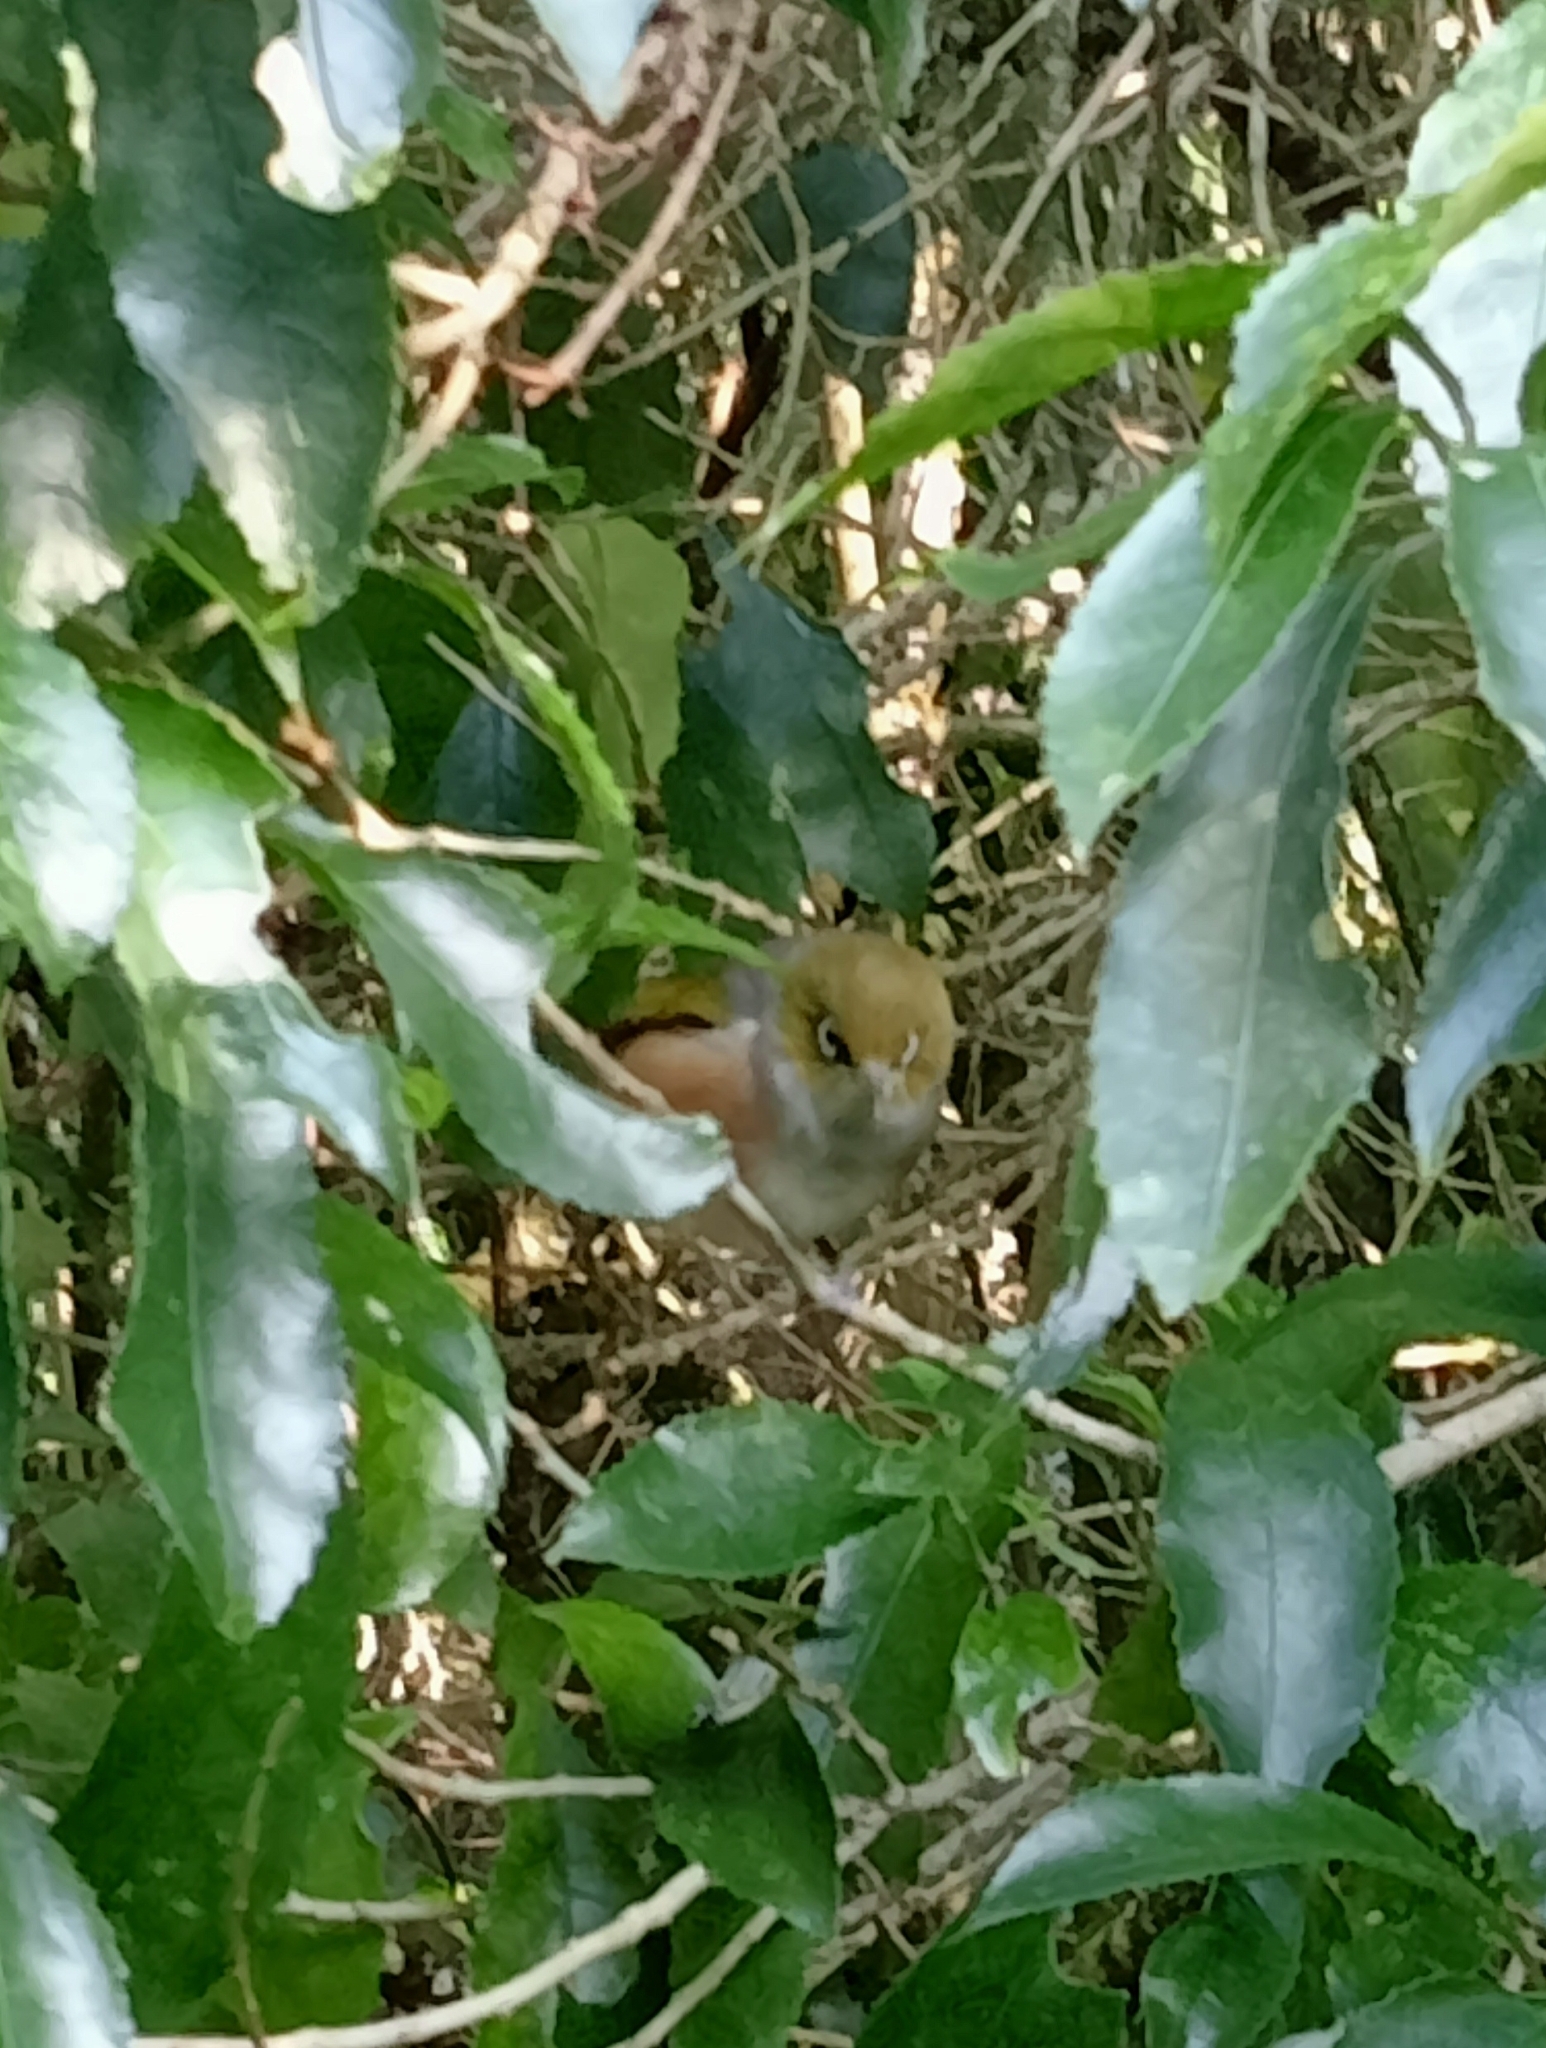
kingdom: Animalia
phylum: Chordata
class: Aves
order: Passeriformes
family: Zosteropidae
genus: Zosterops
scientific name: Zosterops lateralis
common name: Silvereye
